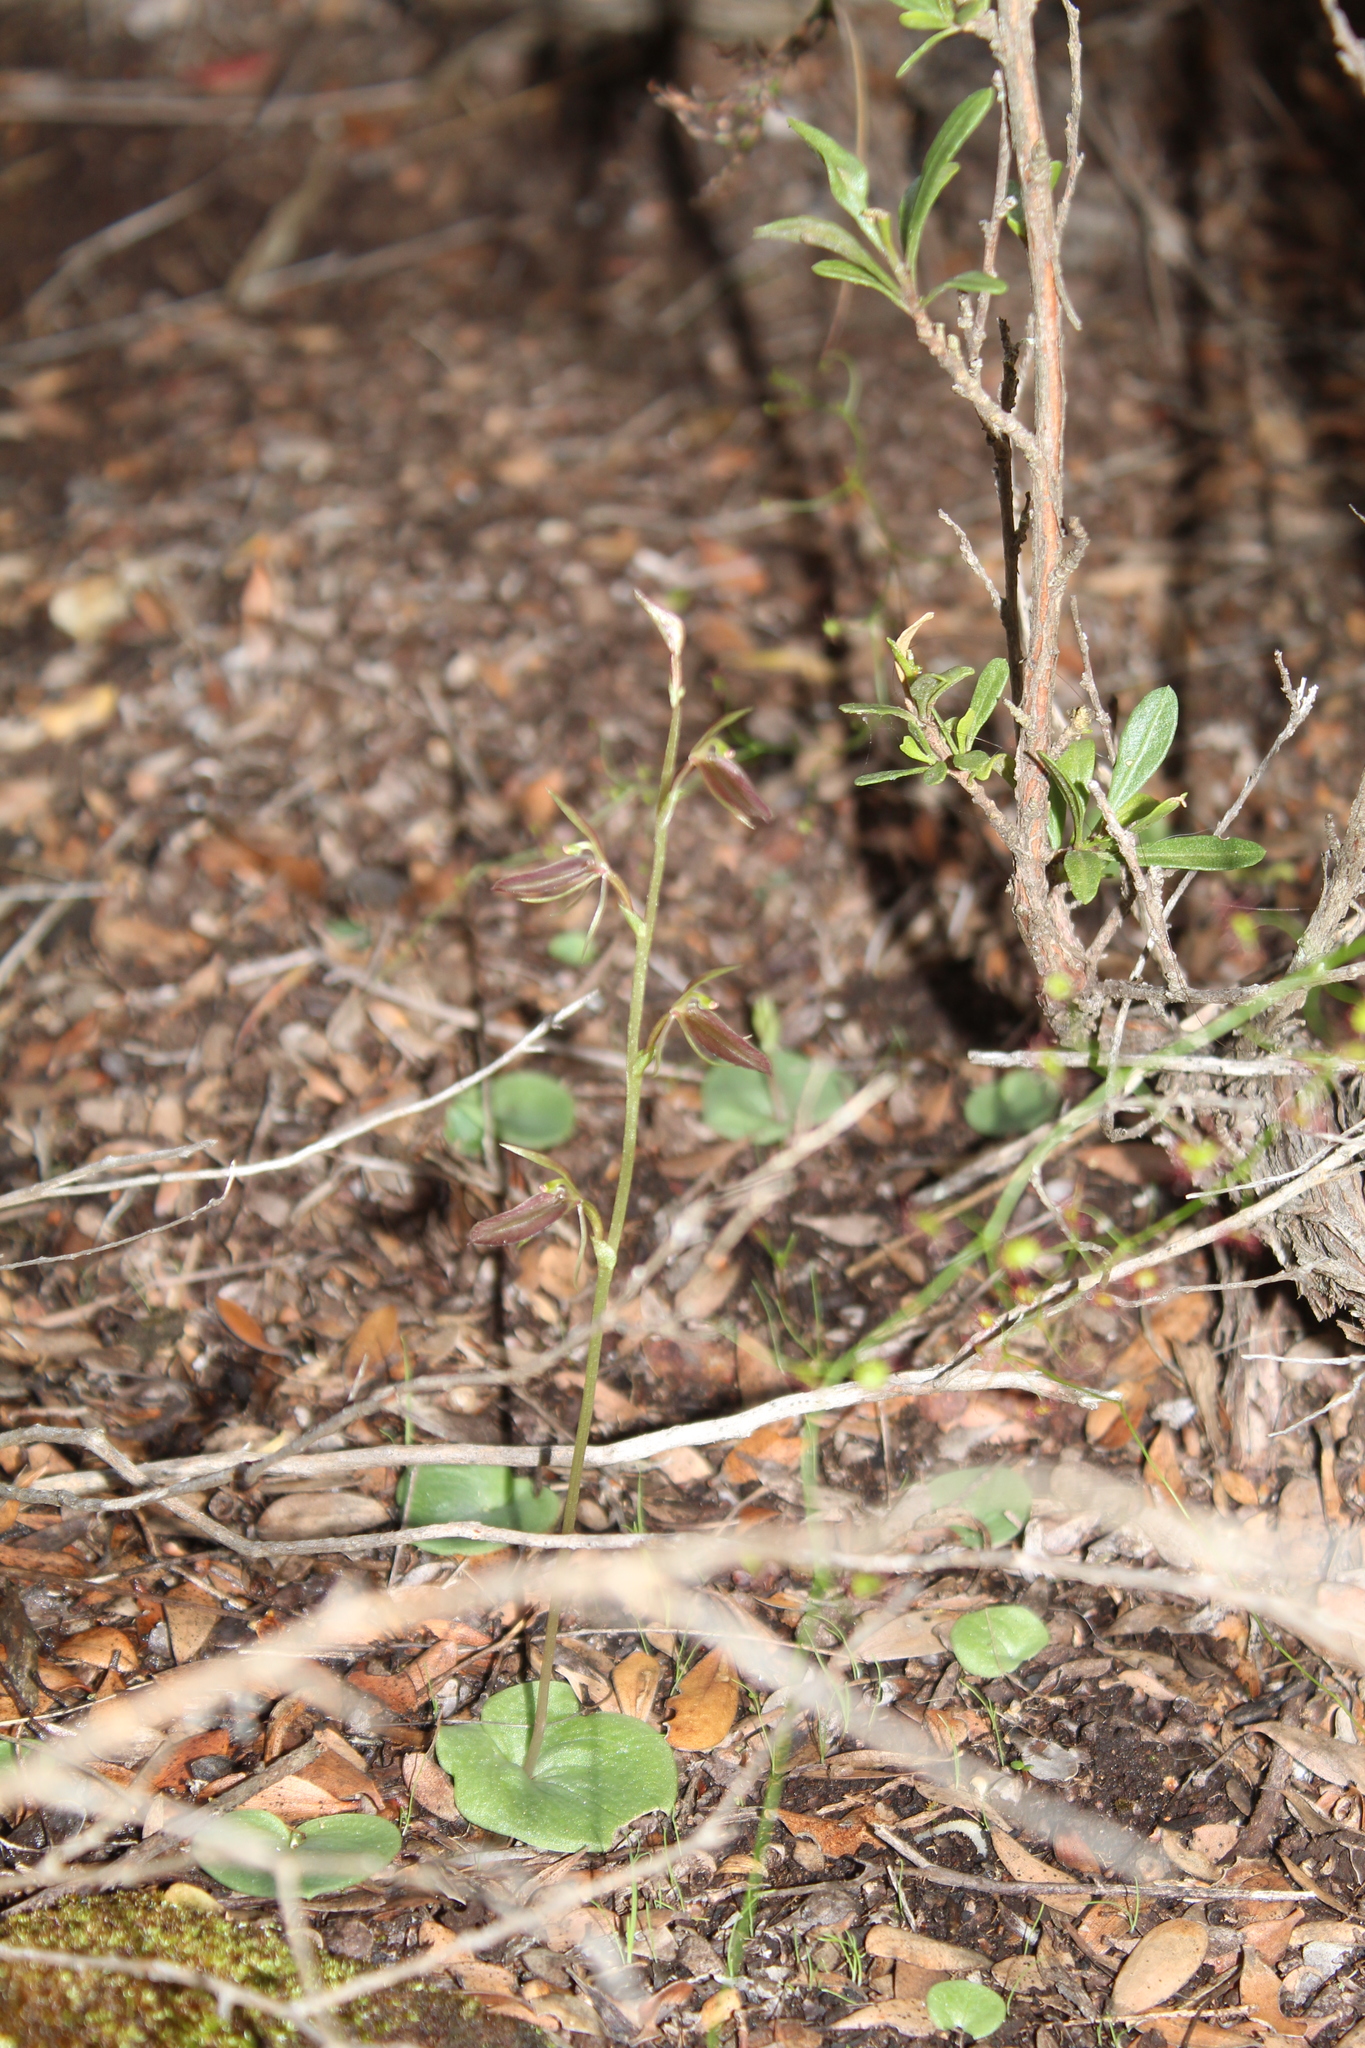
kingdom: Plantae
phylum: Tracheophyta
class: Liliopsida
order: Asparagales
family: Orchidaceae
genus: Cyrtostylis
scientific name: Cyrtostylis robusta
